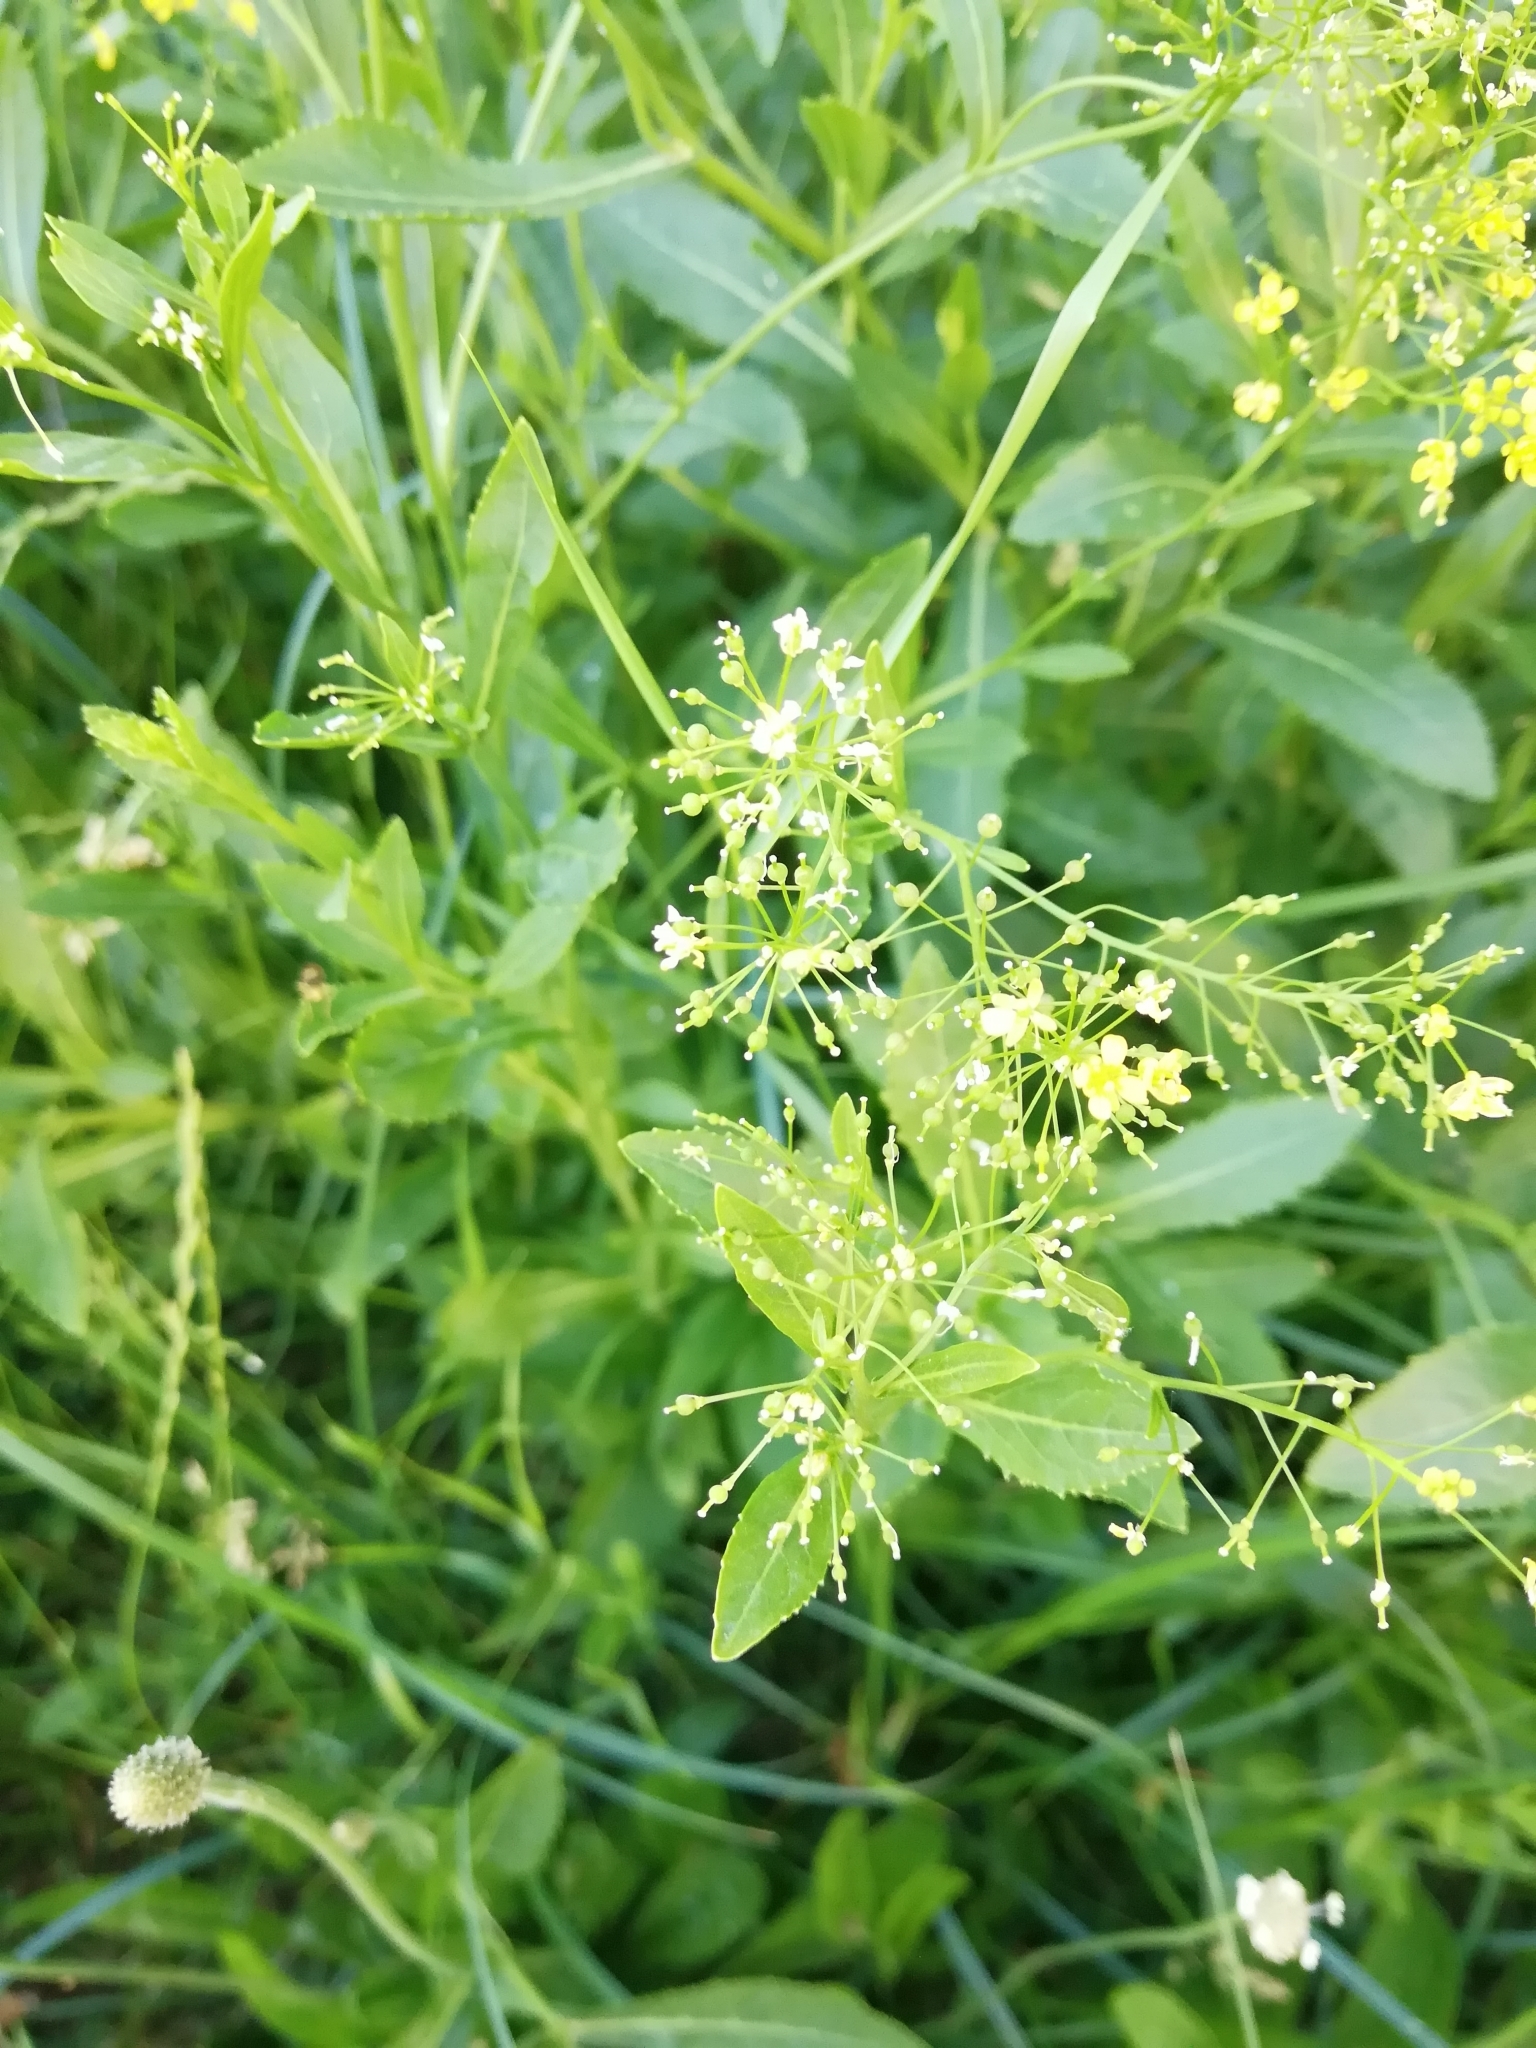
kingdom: Plantae
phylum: Tracheophyta
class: Magnoliopsida
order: Brassicales
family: Brassicaceae
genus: Rorippa
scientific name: Rorippa austriaca
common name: Austrian yellow-cress
